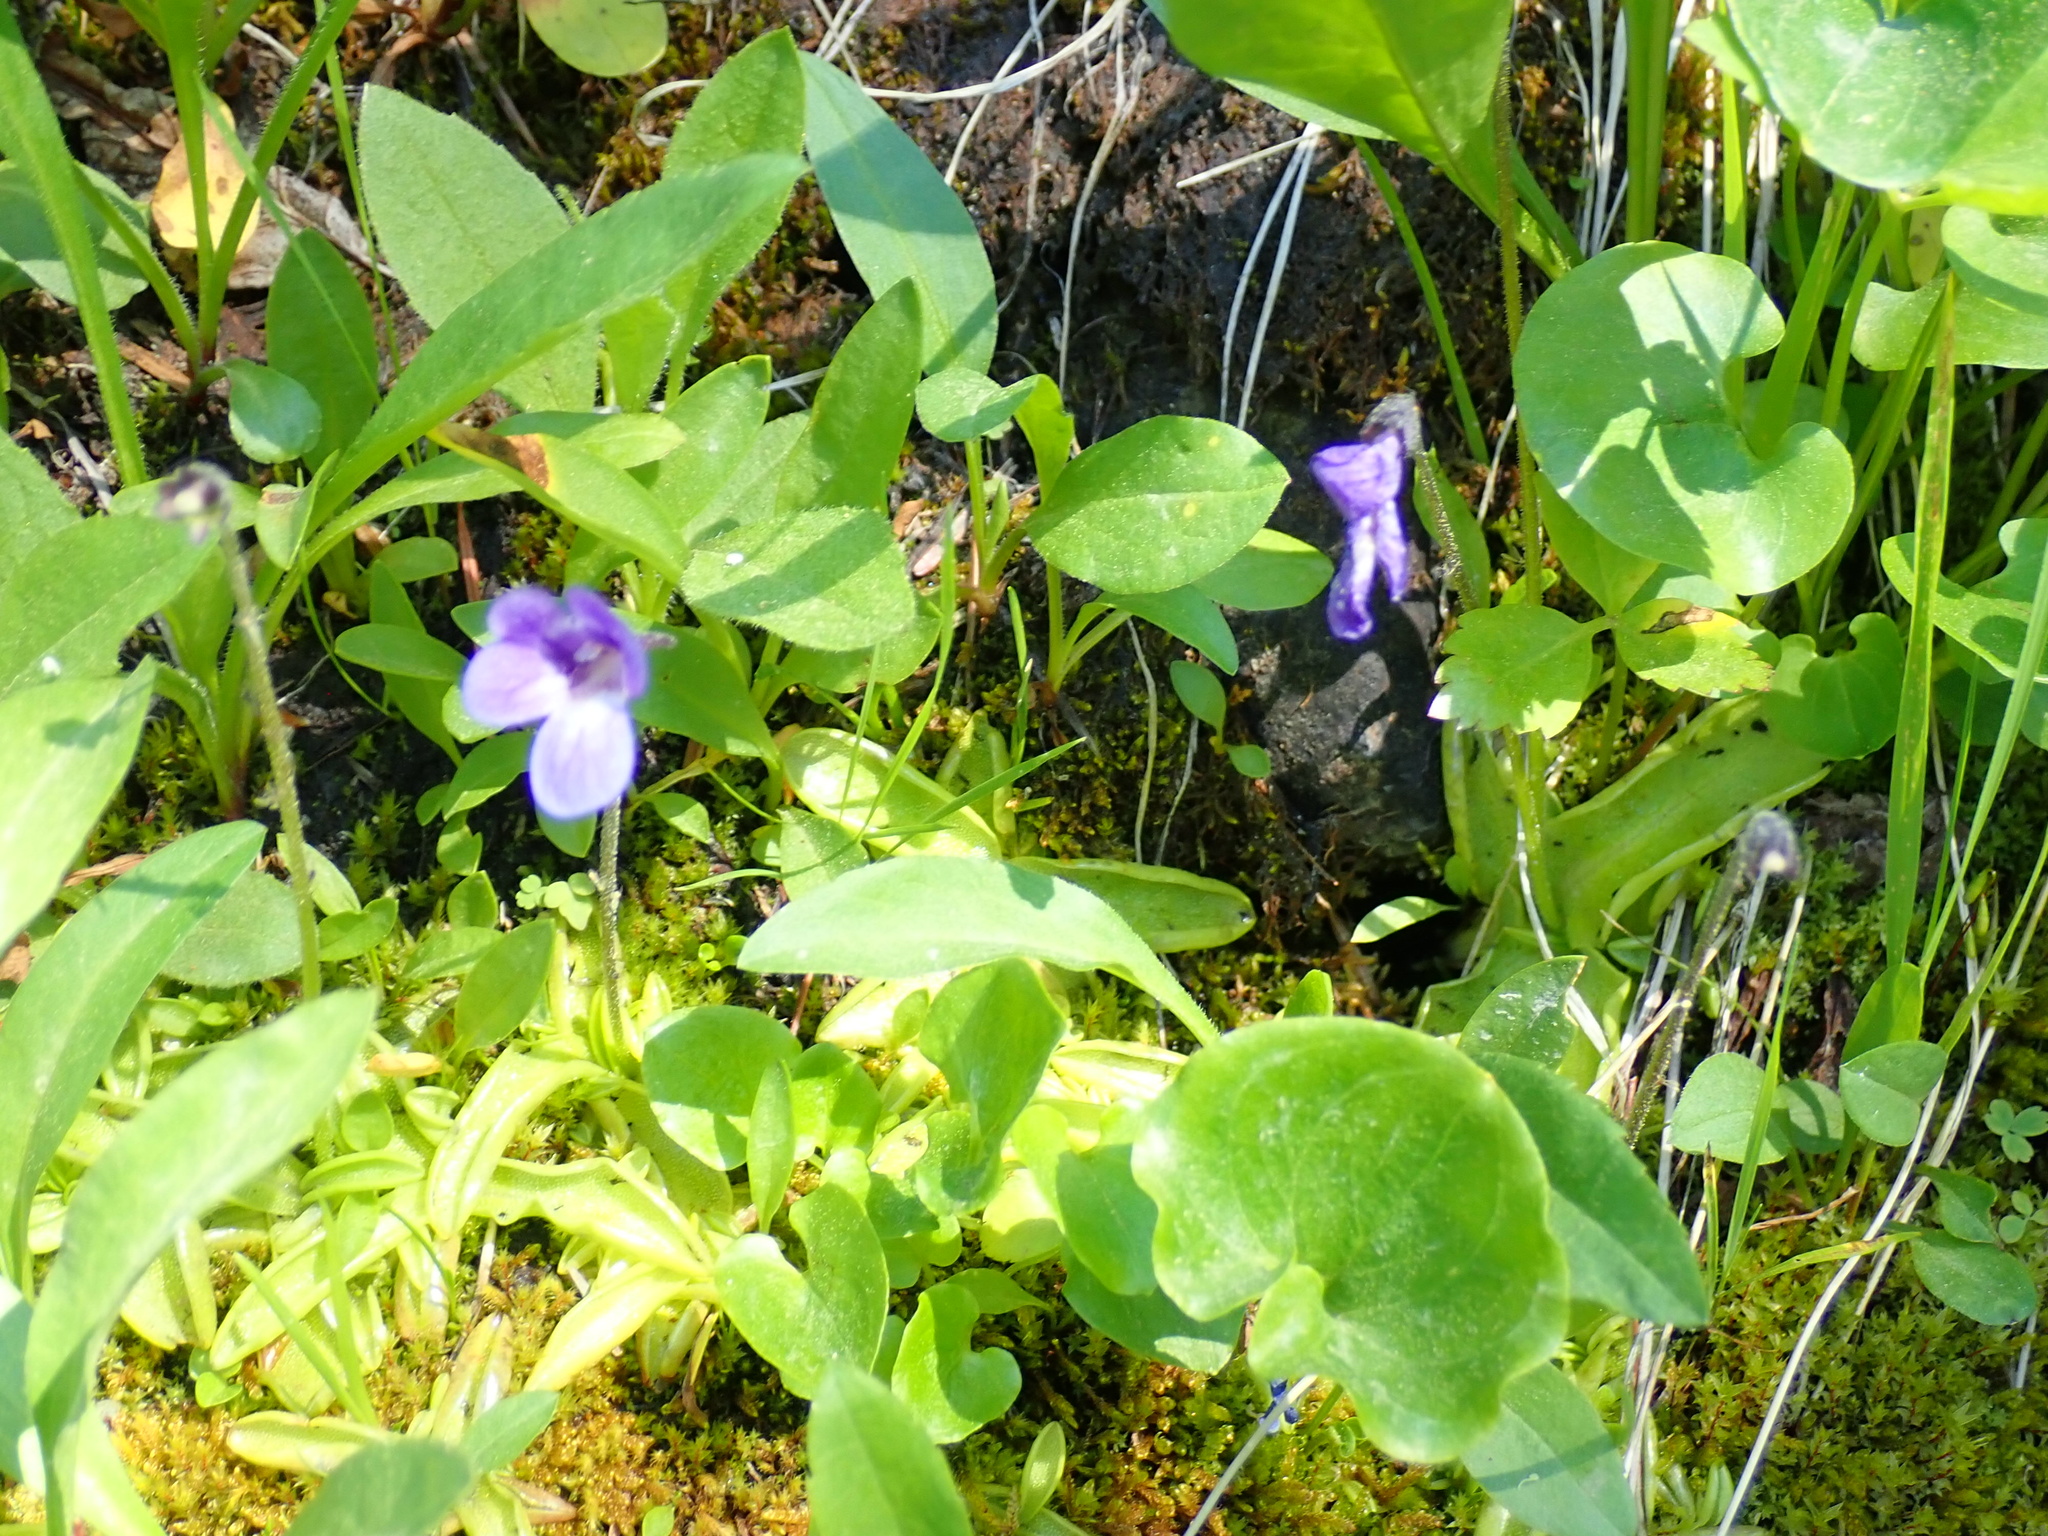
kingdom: Plantae
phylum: Tracheophyta
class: Magnoliopsida
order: Lamiales
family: Lentibulariaceae
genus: Pinguicula
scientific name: Pinguicula macroceras
